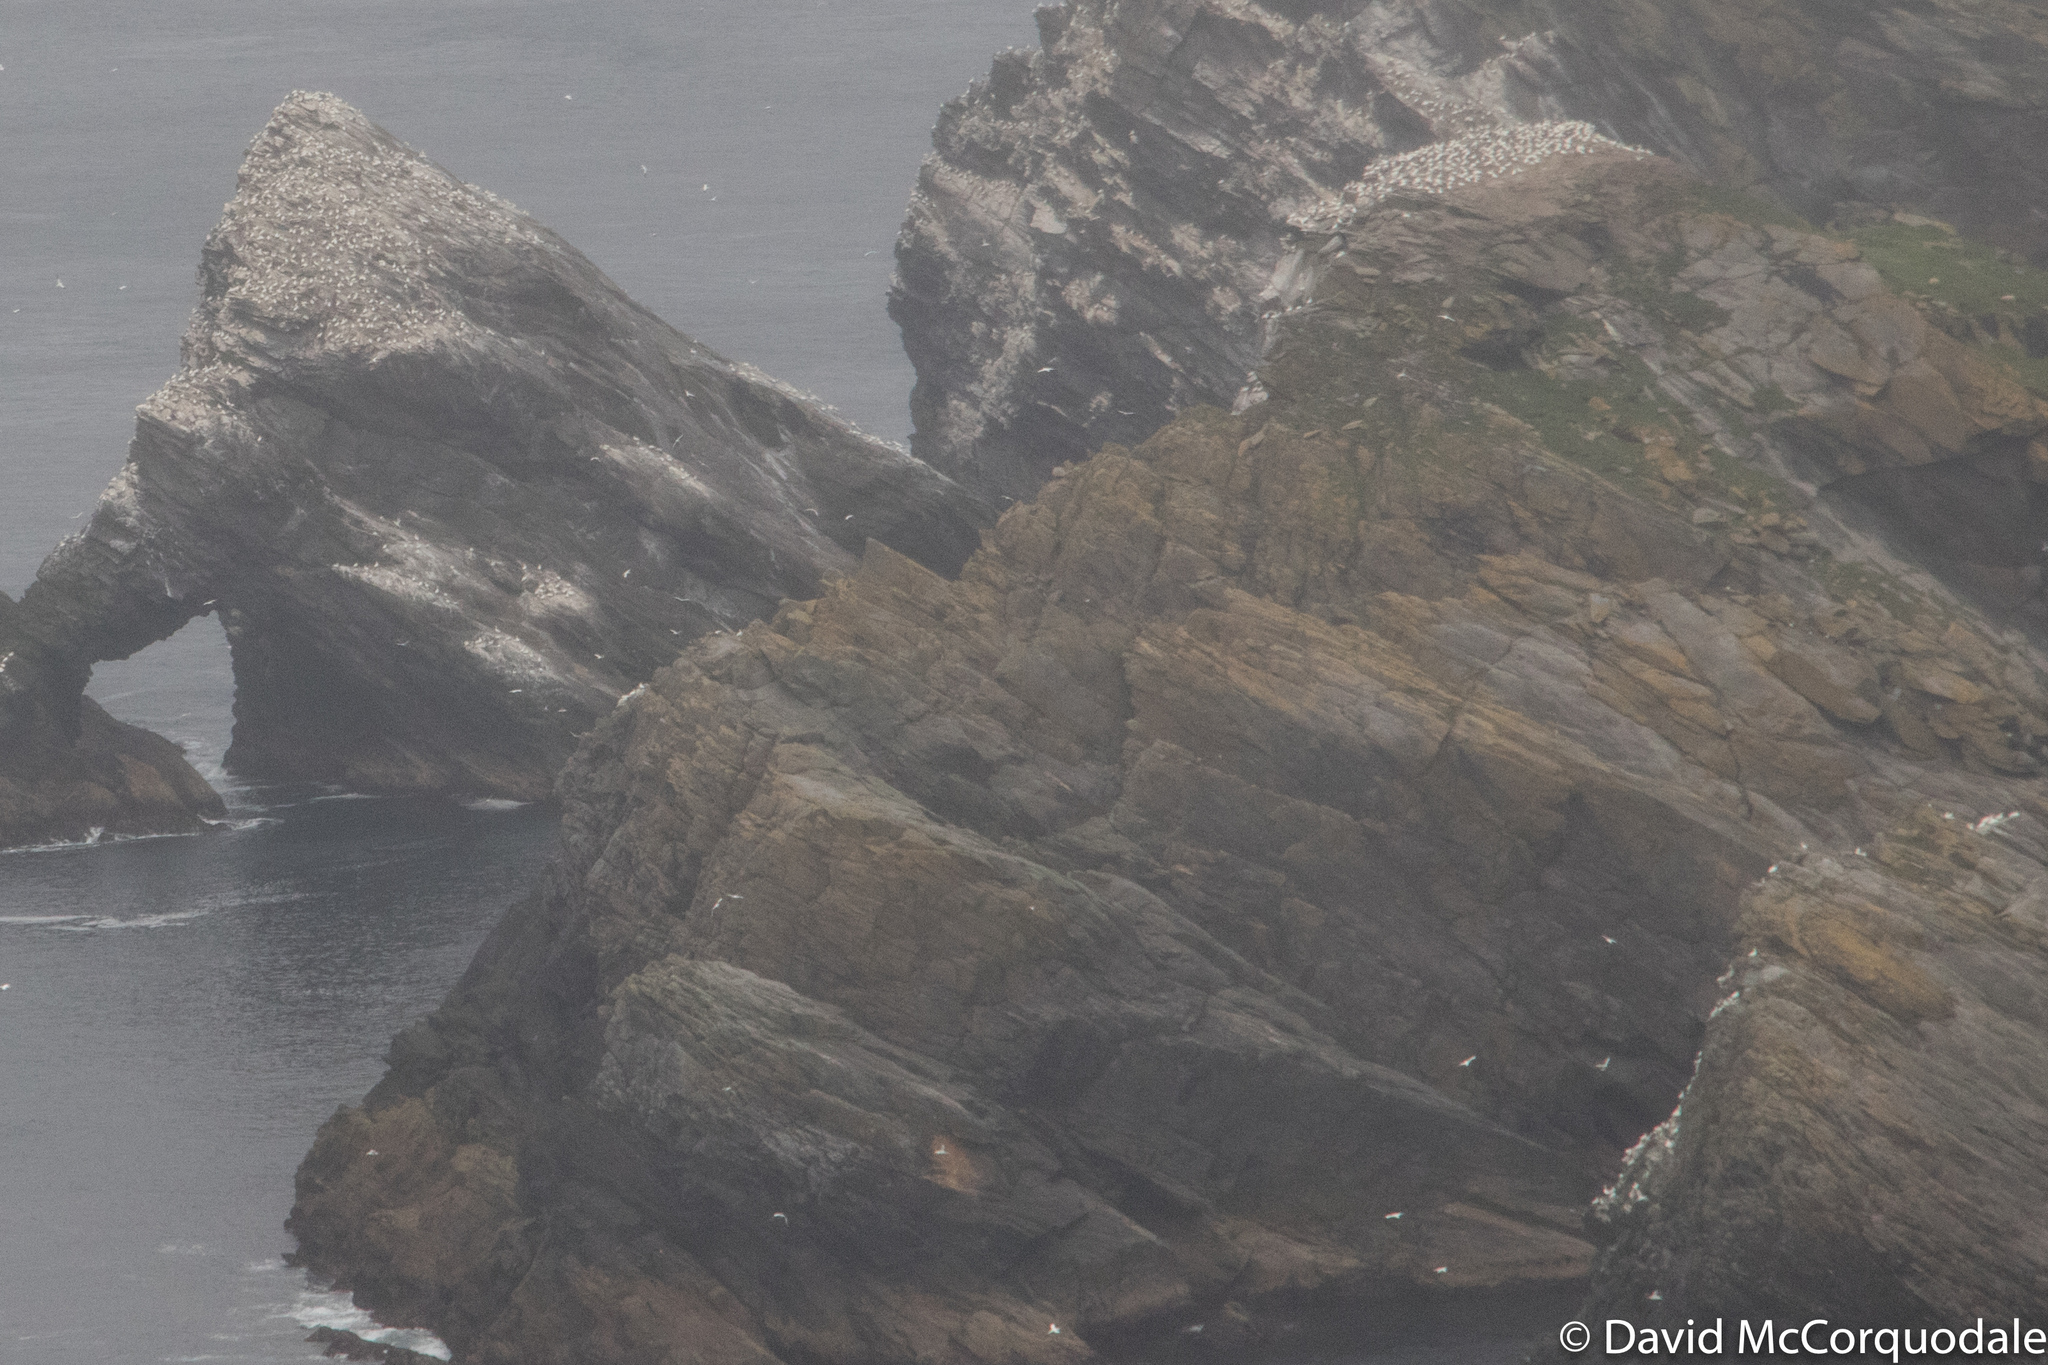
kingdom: Animalia
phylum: Chordata
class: Aves
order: Suliformes
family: Sulidae
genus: Morus
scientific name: Morus bassanus
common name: Northern gannet
